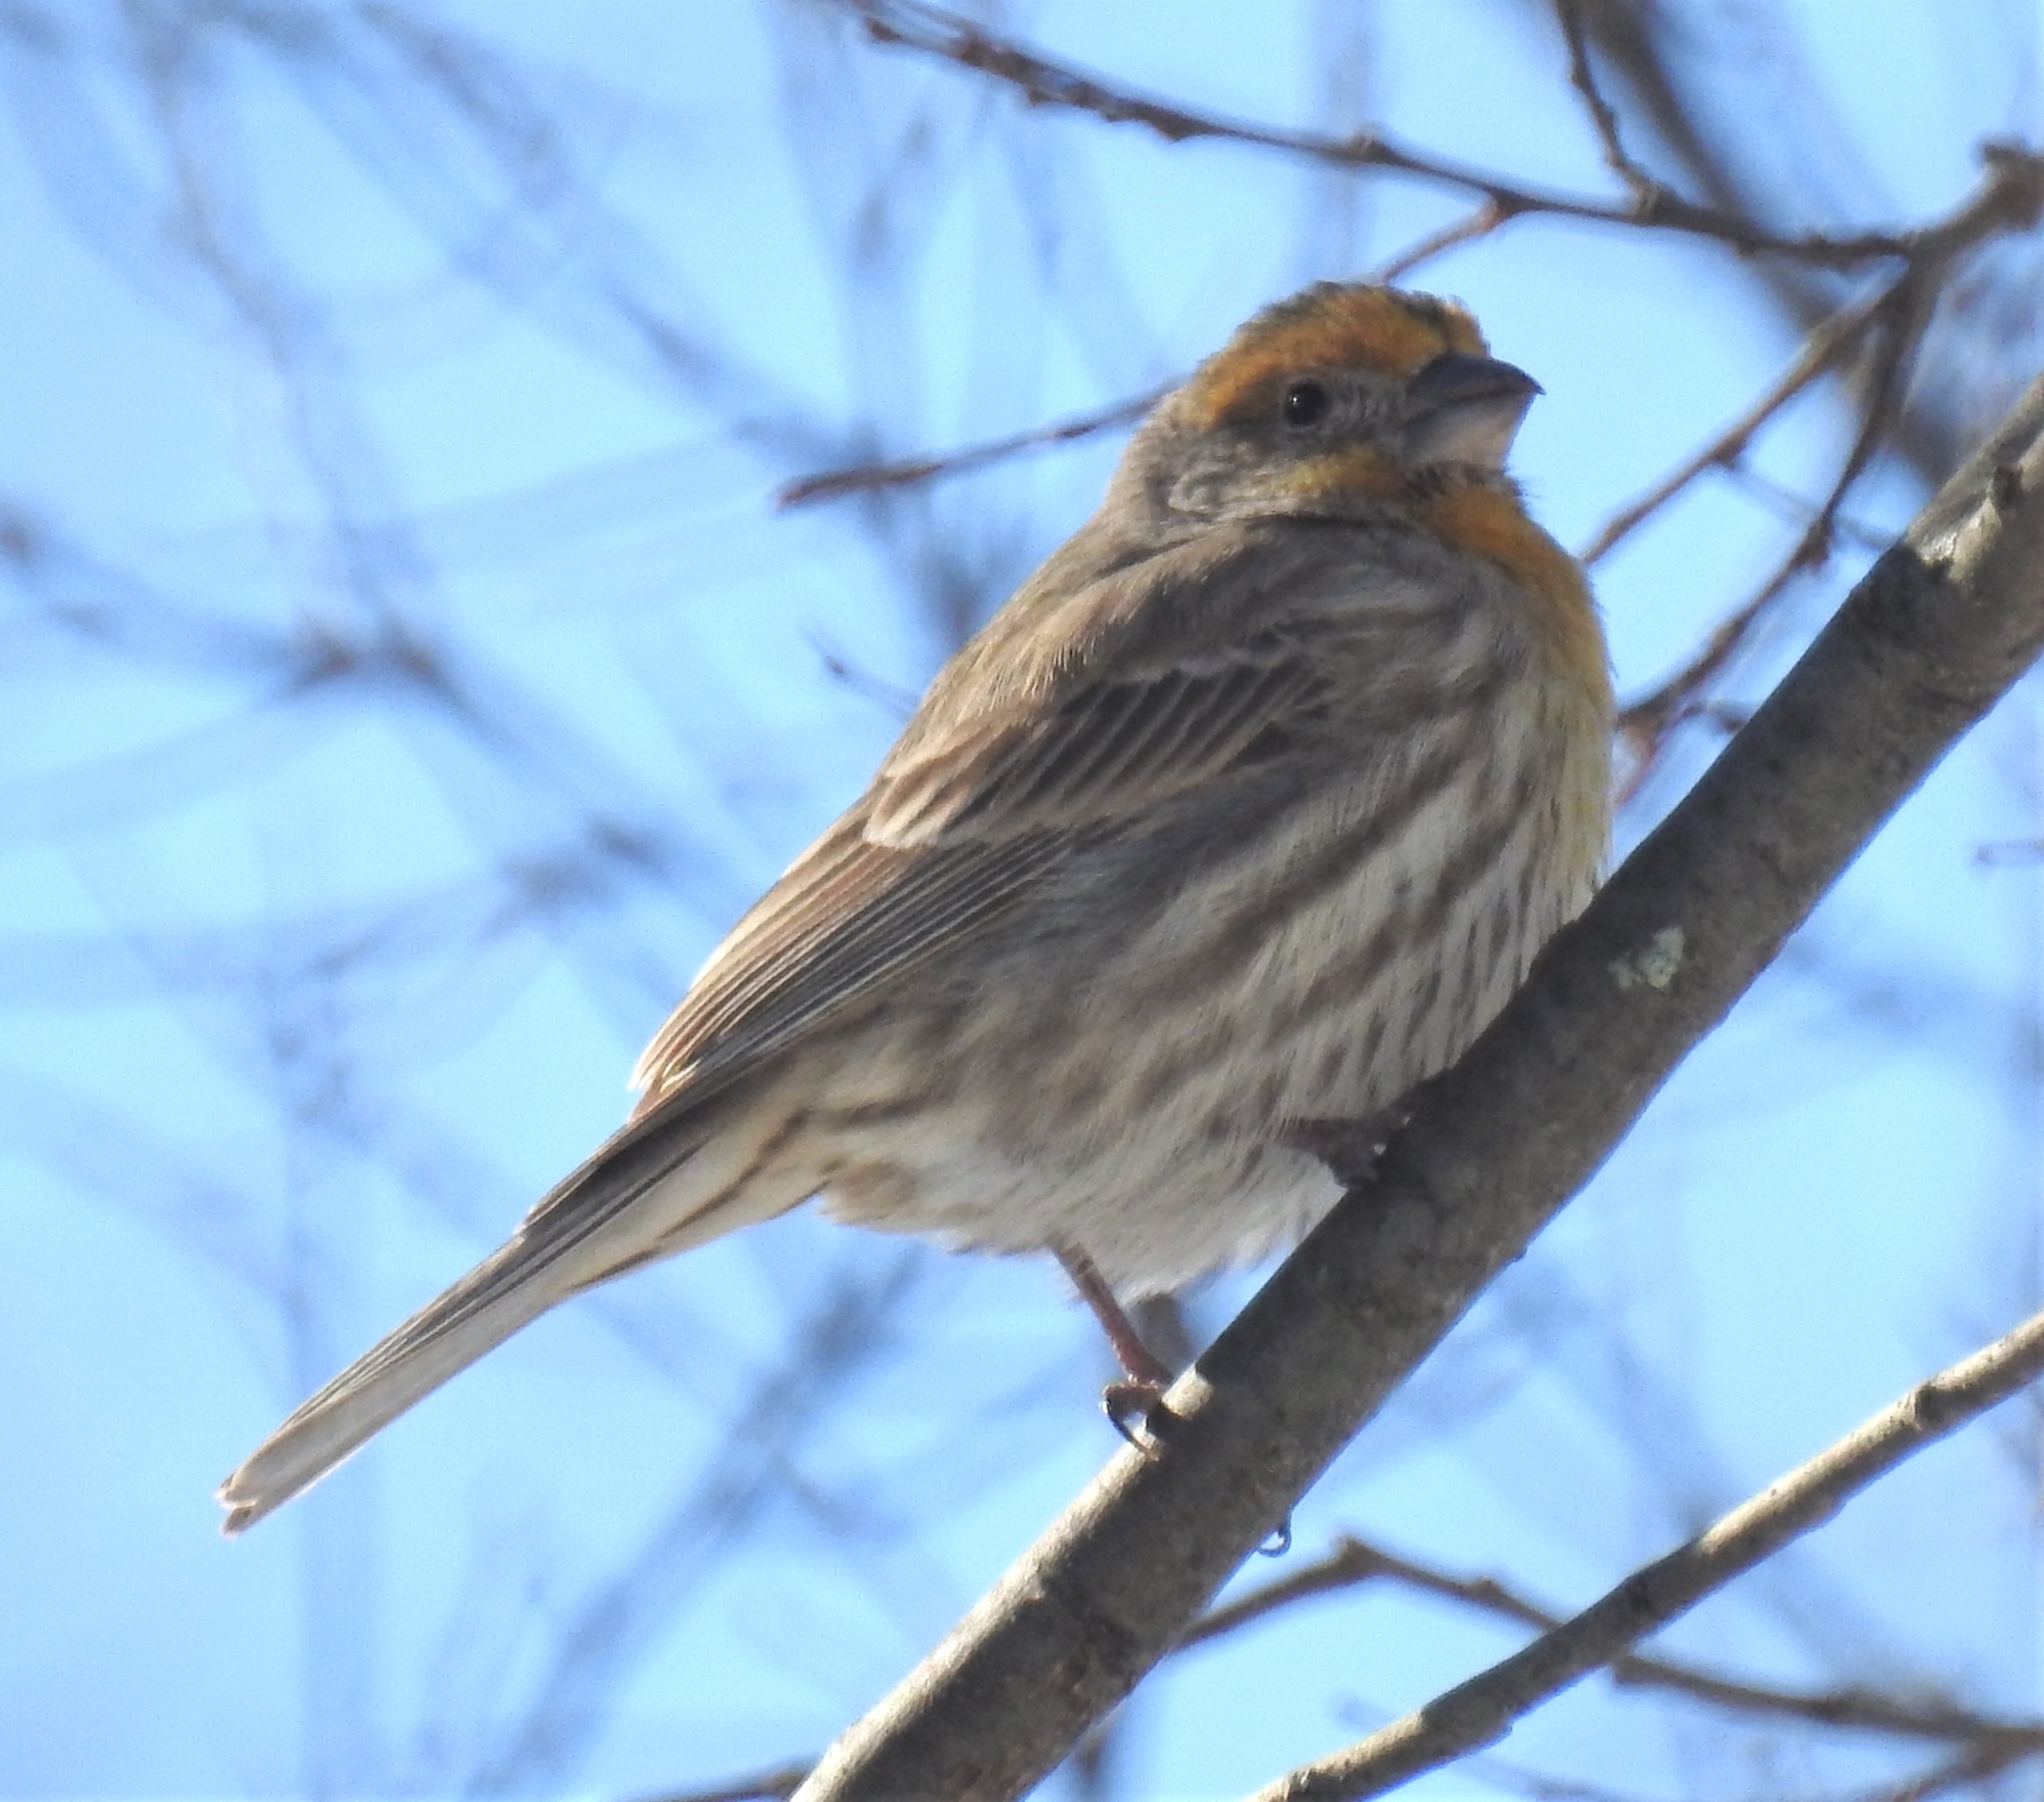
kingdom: Animalia
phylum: Chordata
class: Aves
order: Passeriformes
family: Fringillidae
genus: Haemorhous
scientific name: Haemorhous mexicanus
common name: House finch
